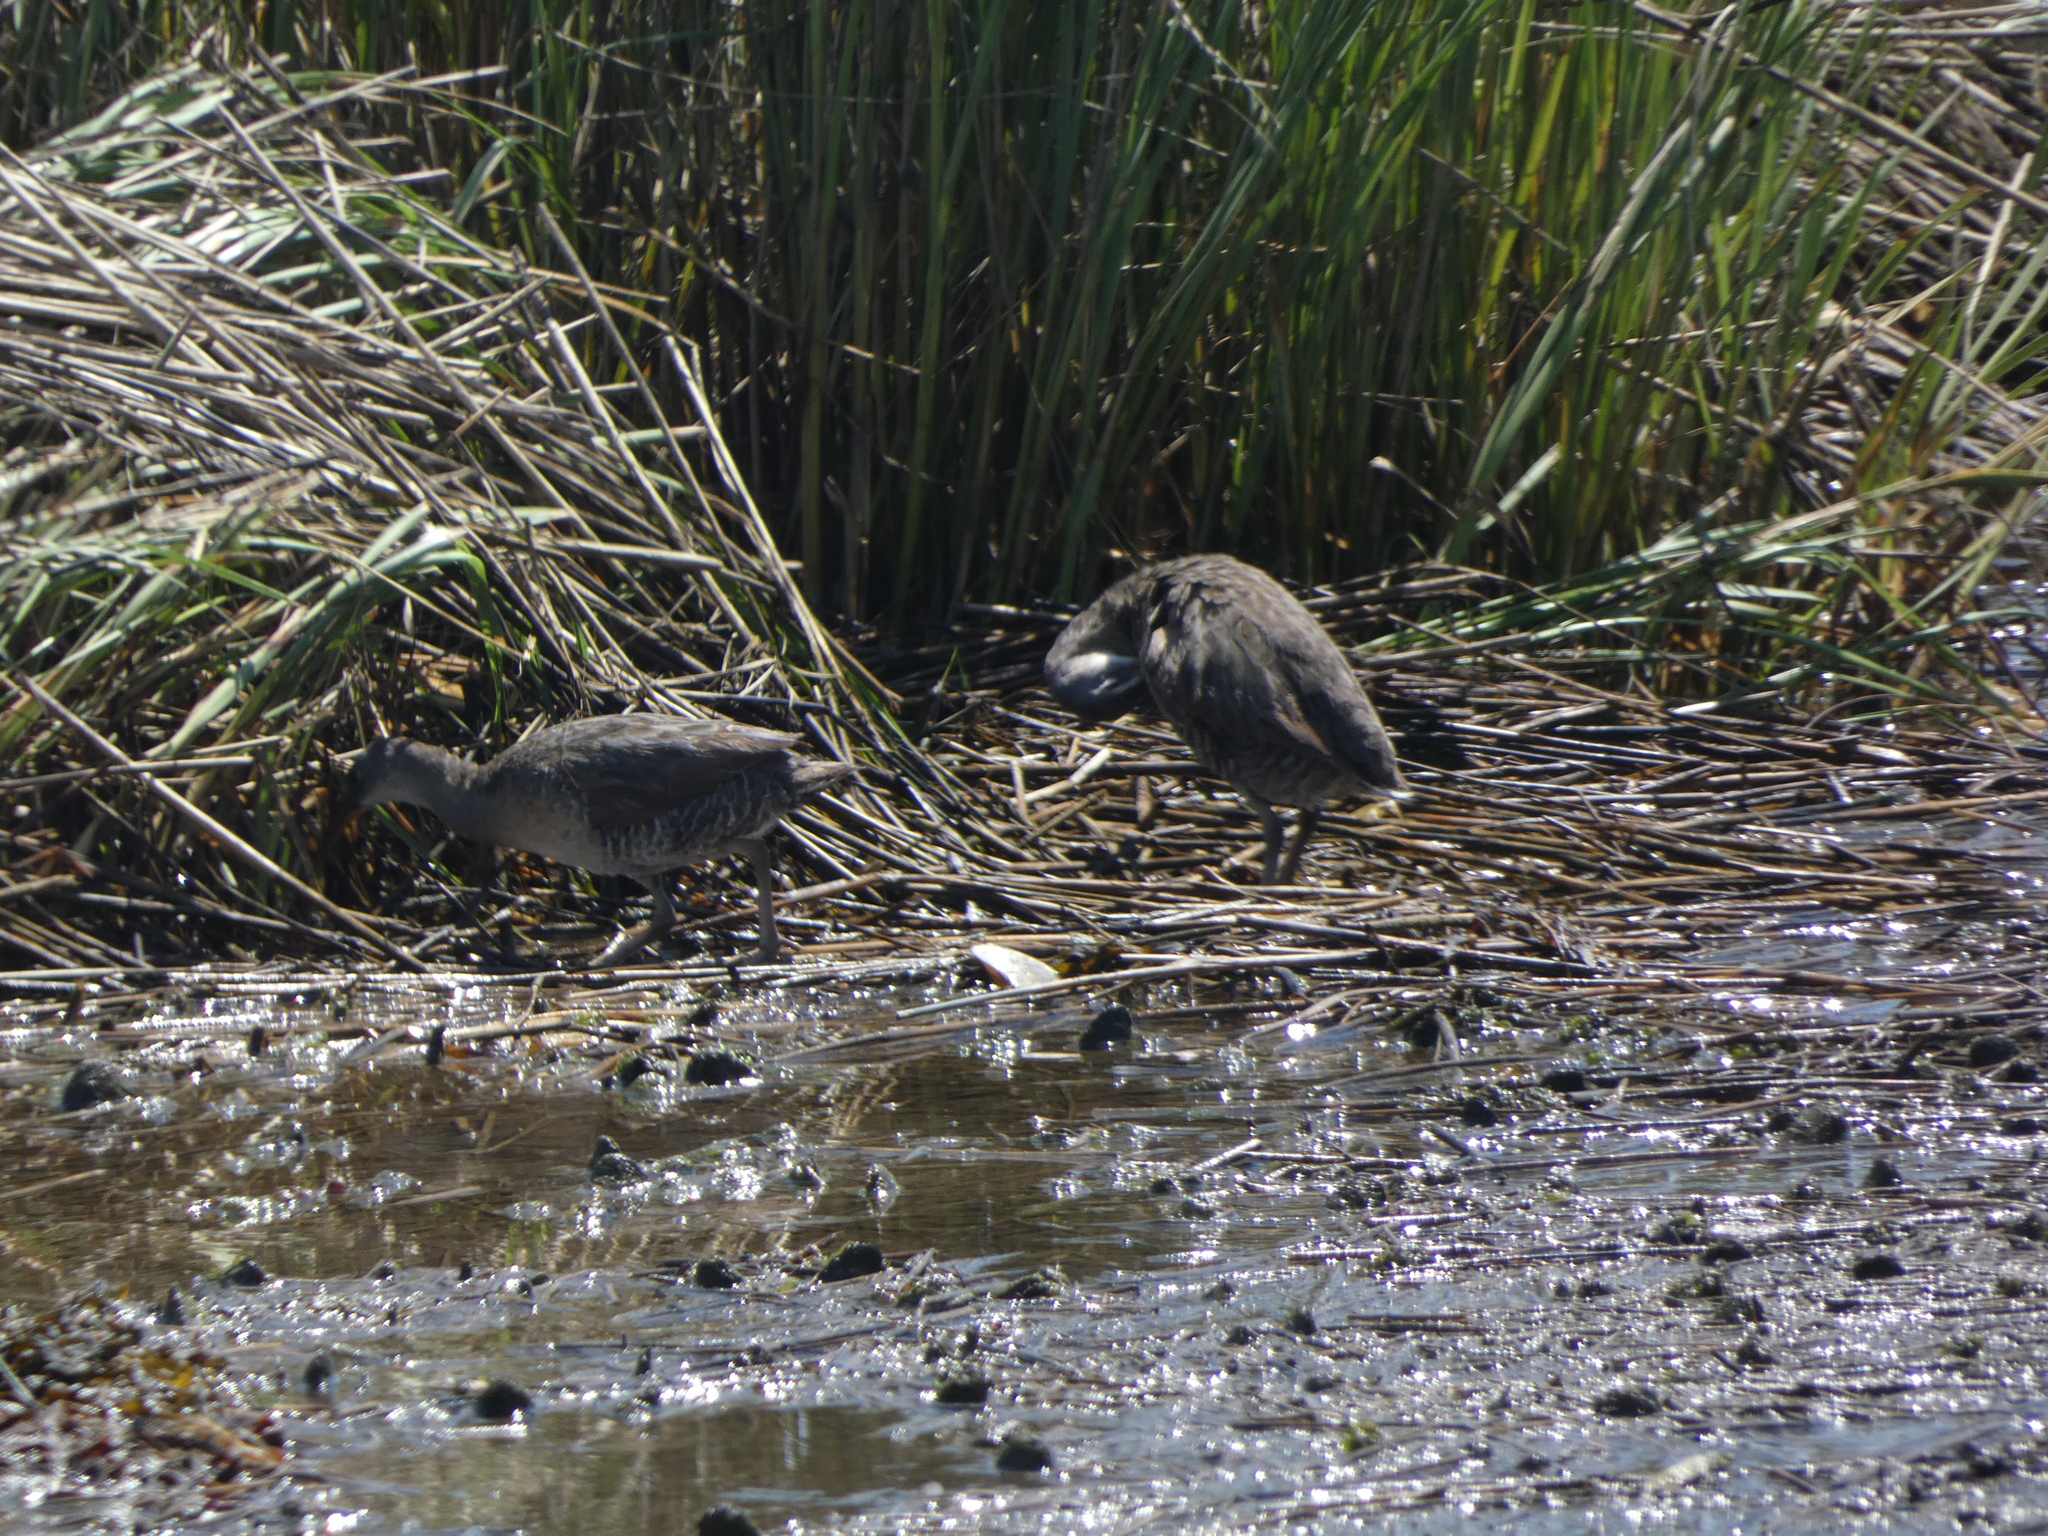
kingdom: Animalia
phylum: Chordata
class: Aves
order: Gruiformes
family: Rallidae
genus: Rallus
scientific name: Rallus crepitans
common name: Clapper rail
